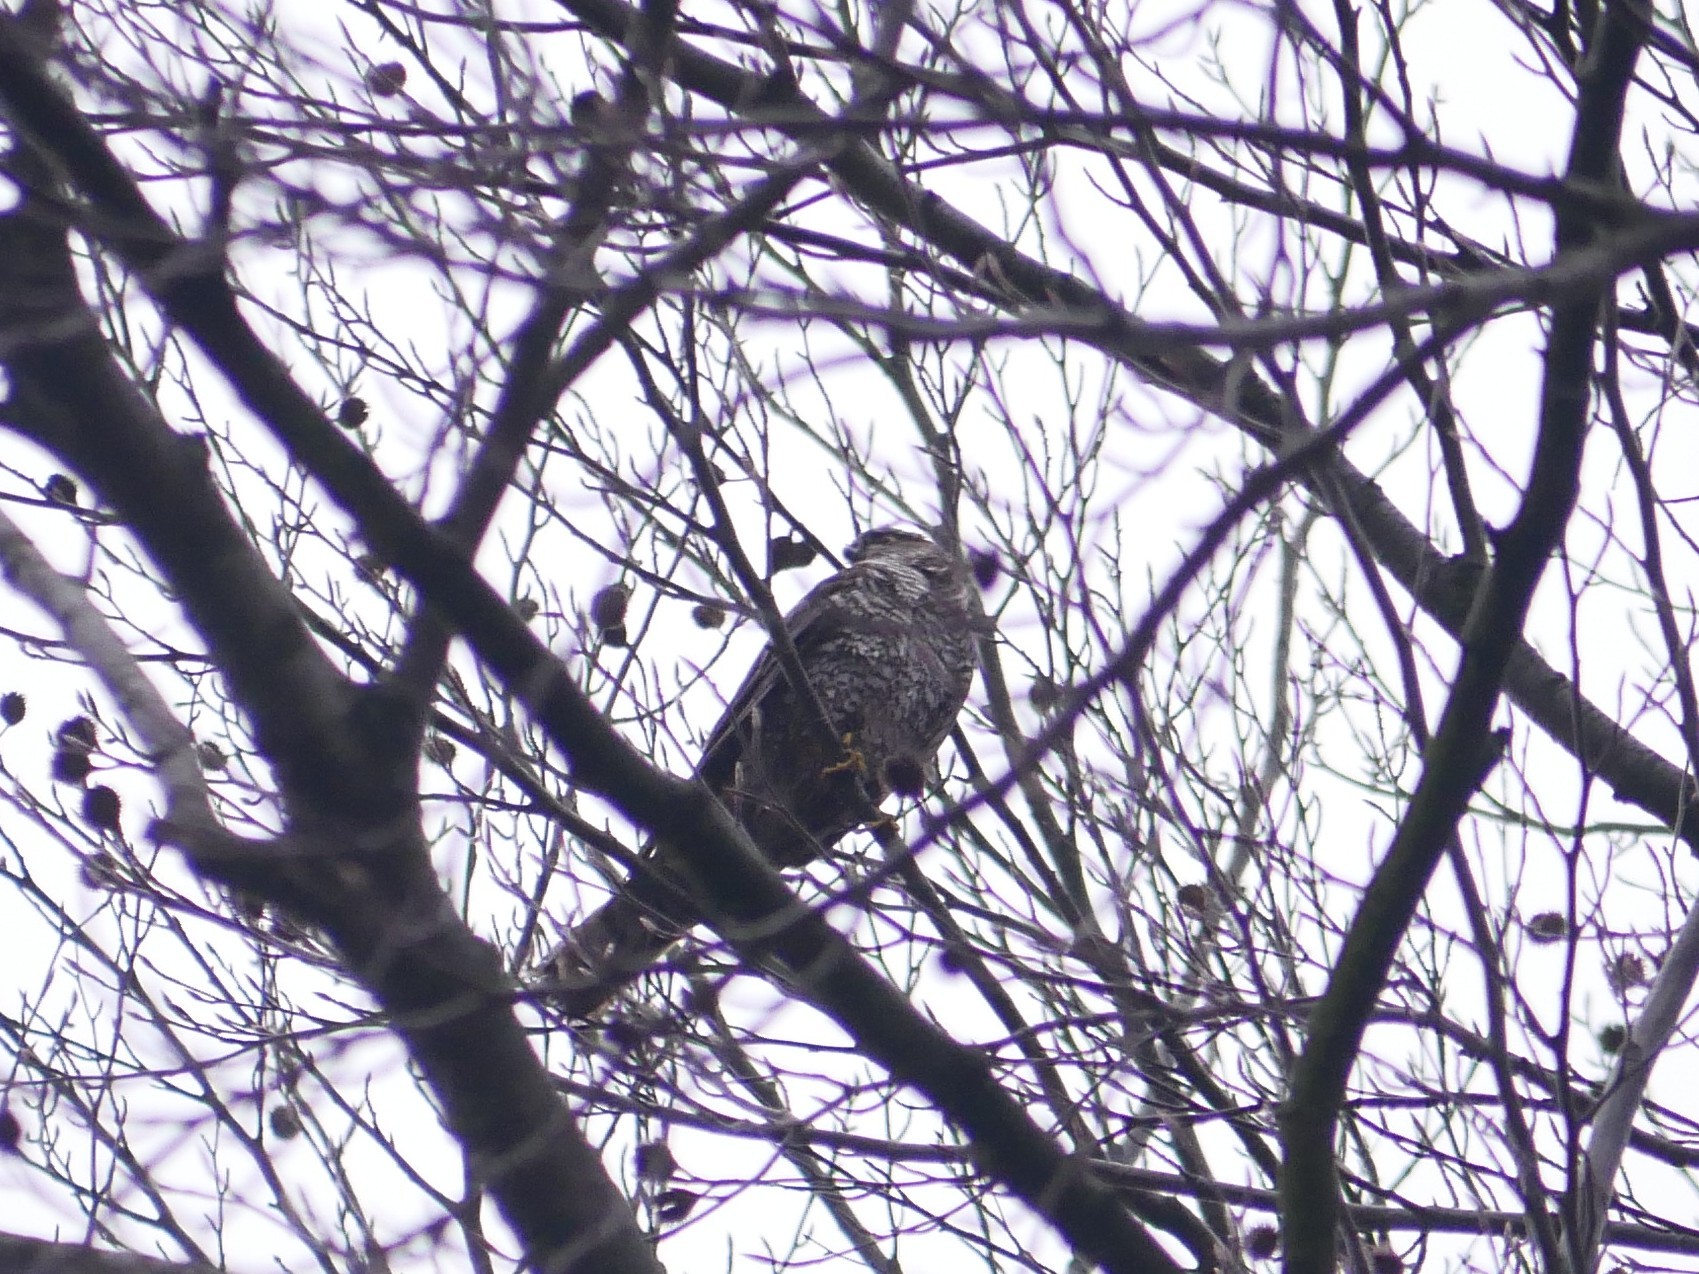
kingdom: Animalia
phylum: Chordata
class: Aves
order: Accipitriformes
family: Accipitridae
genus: Accipiter
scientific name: Accipiter nisus
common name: Eurasian sparrowhawk
